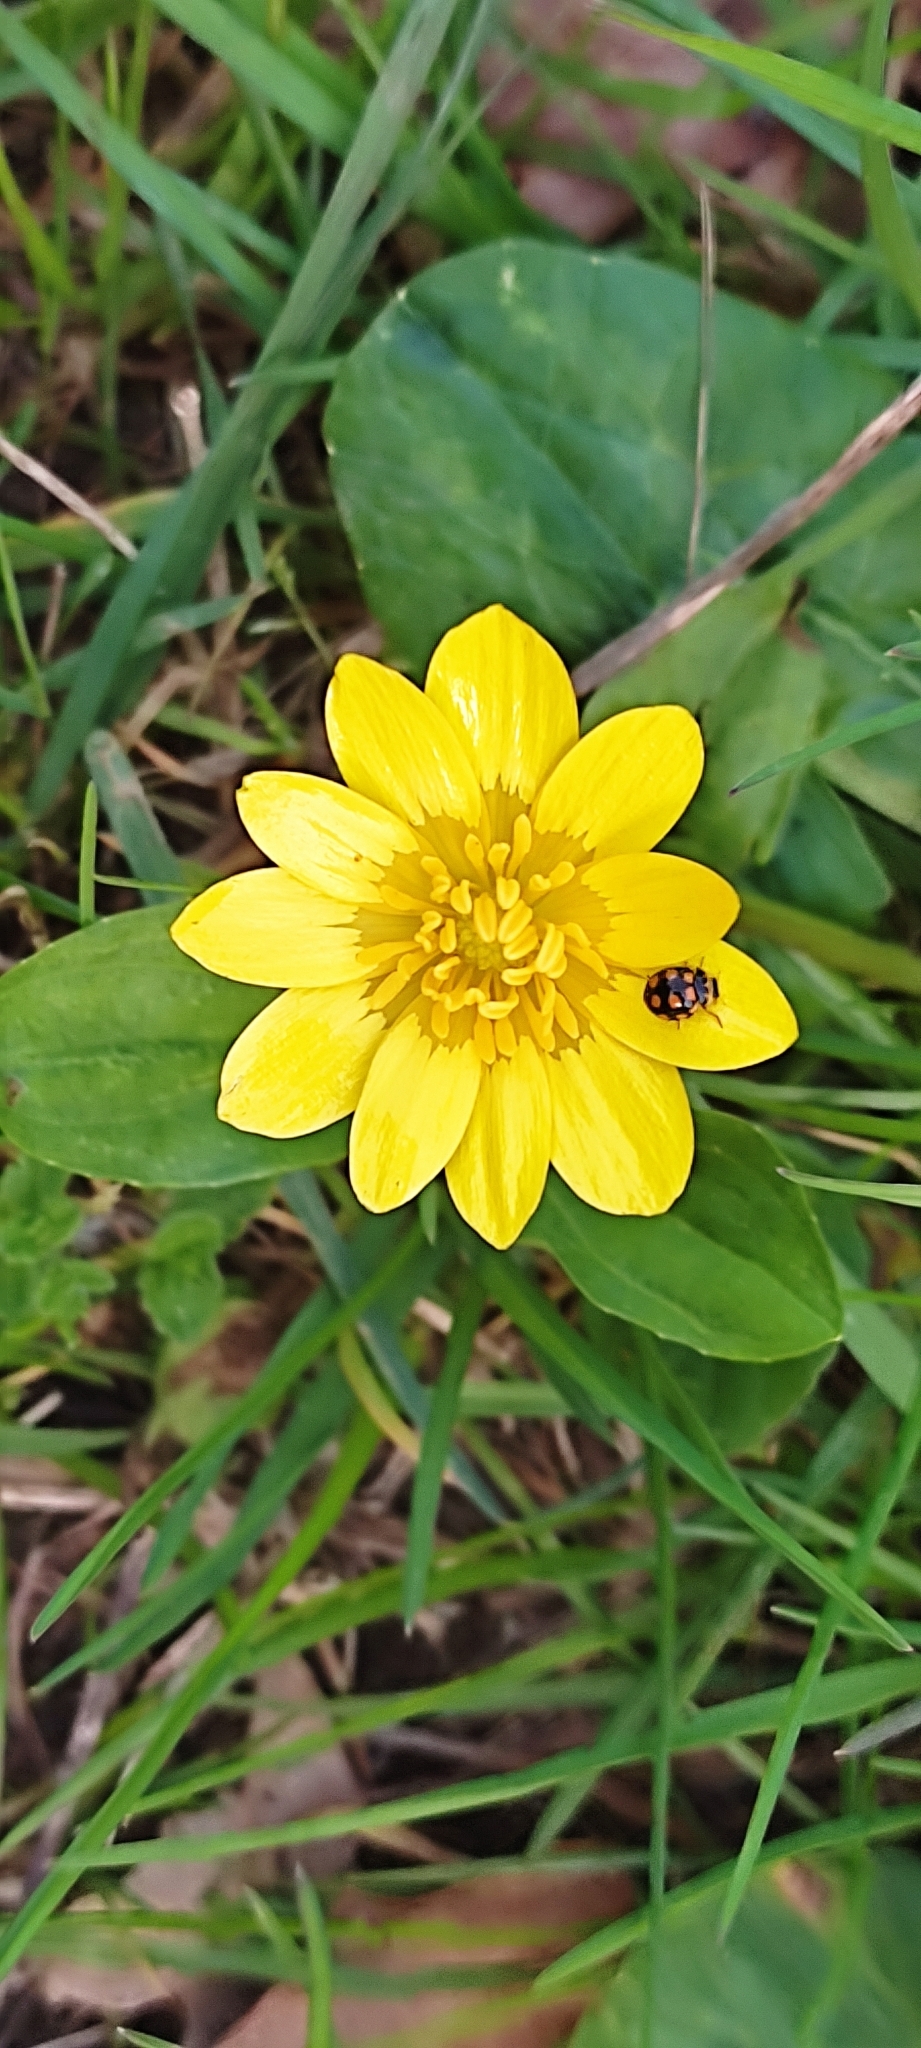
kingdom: Plantae
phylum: Tracheophyta
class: Magnoliopsida
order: Ranunculales
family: Ranunculaceae
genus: Ficaria
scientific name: Ficaria verna
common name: Lesser celandine
